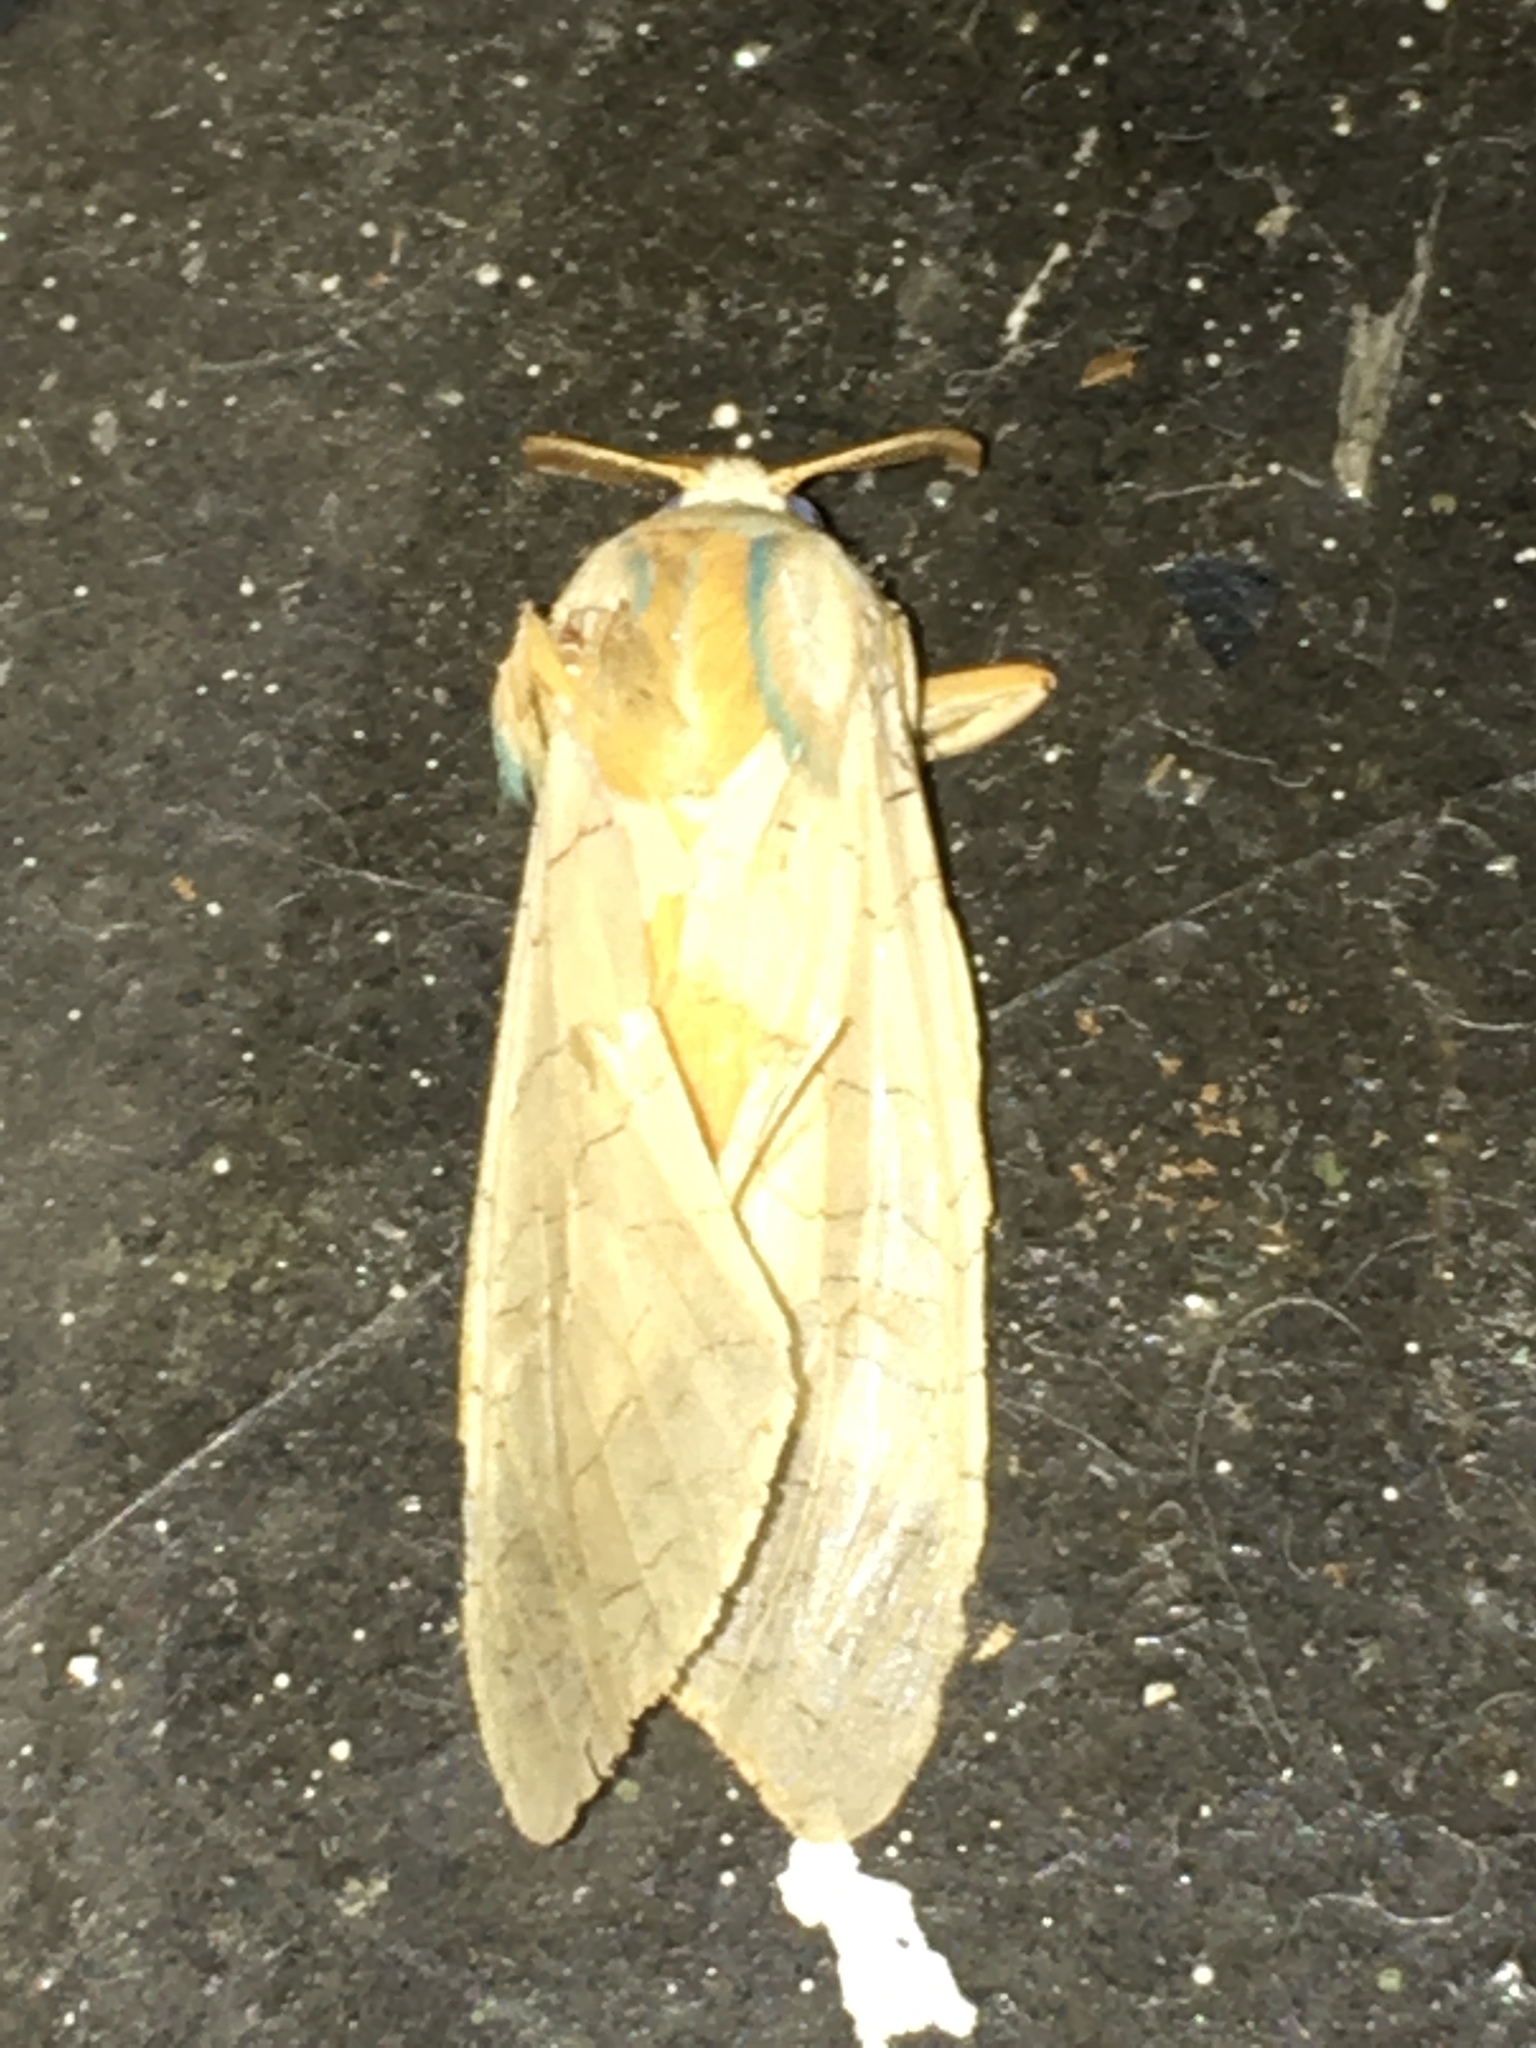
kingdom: Animalia
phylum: Arthropoda
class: Insecta
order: Lepidoptera
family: Erebidae
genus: Halysidota
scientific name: Halysidota
